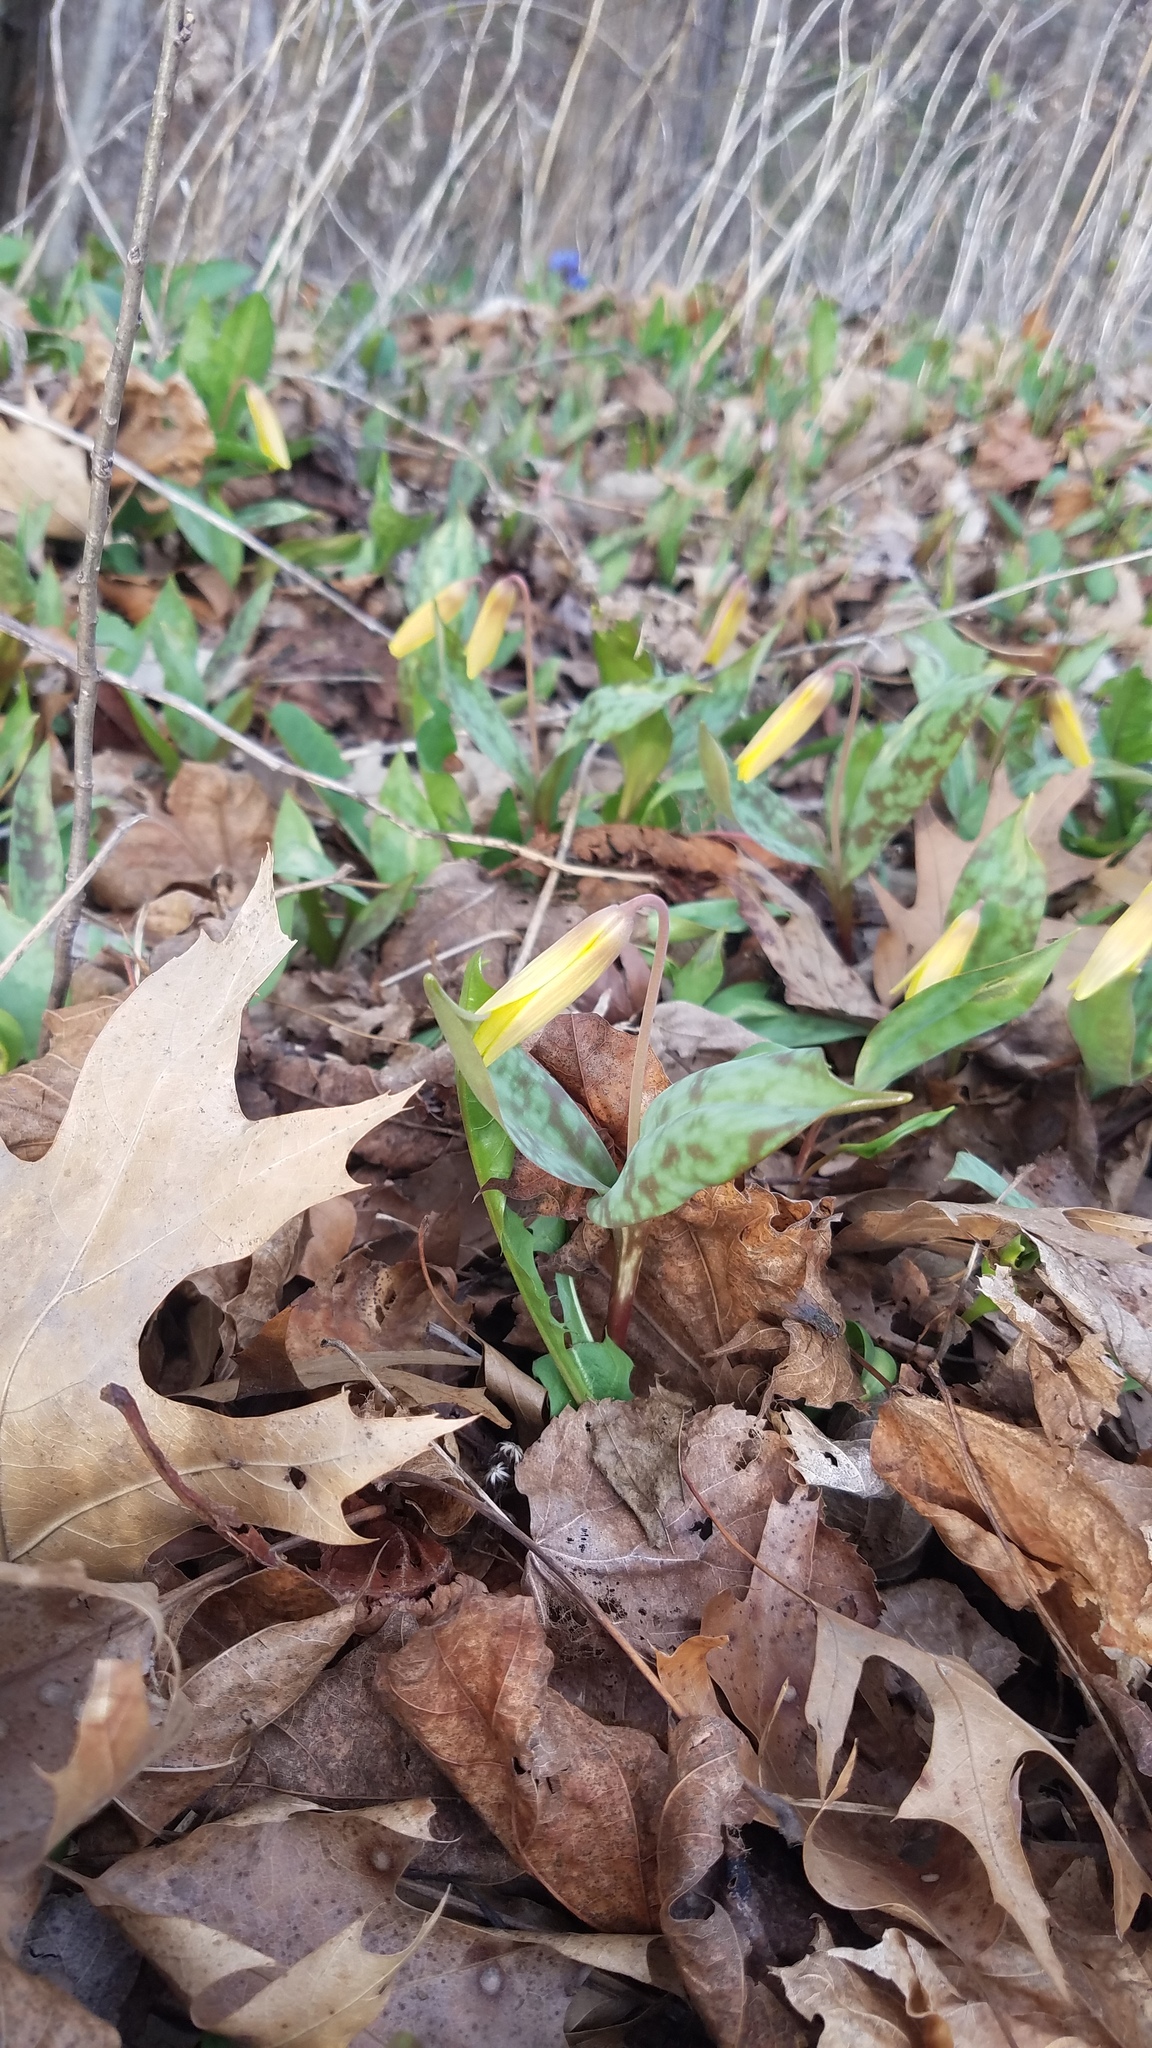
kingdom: Plantae
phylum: Tracheophyta
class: Liliopsida
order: Liliales
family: Liliaceae
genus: Erythronium
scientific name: Erythronium americanum
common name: Yellow adder's-tongue
